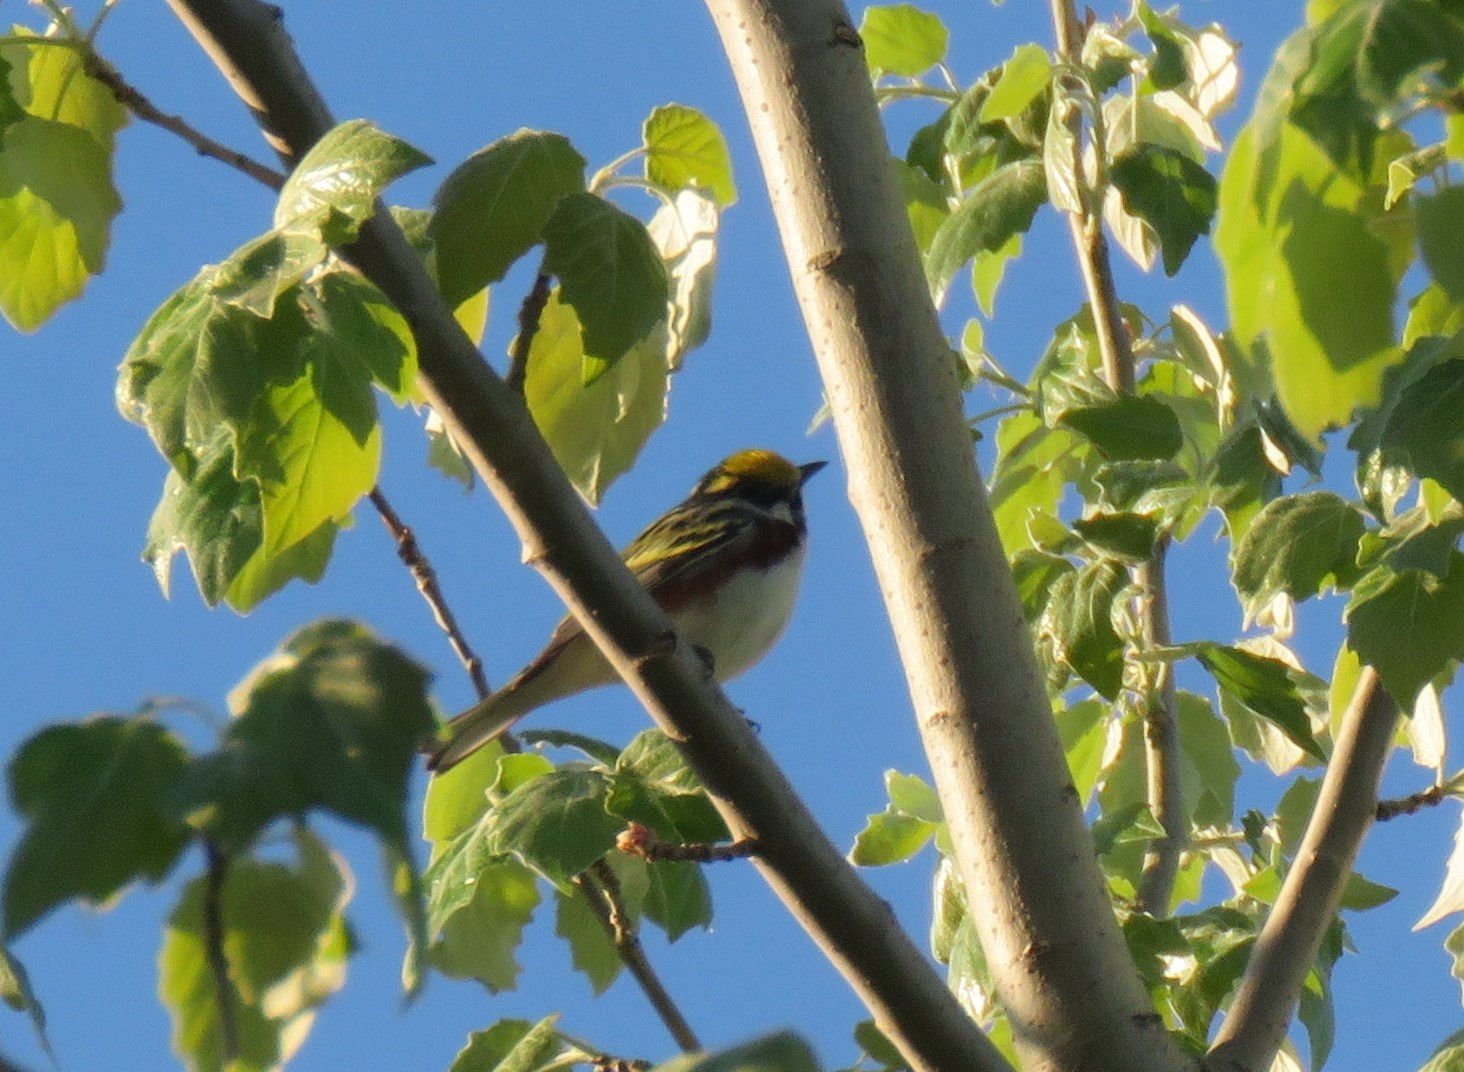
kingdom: Animalia
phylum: Chordata
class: Aves
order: Passeriformes
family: Parulidae
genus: Setophaga
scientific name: Setophaga pensylvanica
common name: Chestnut-sided warbler
